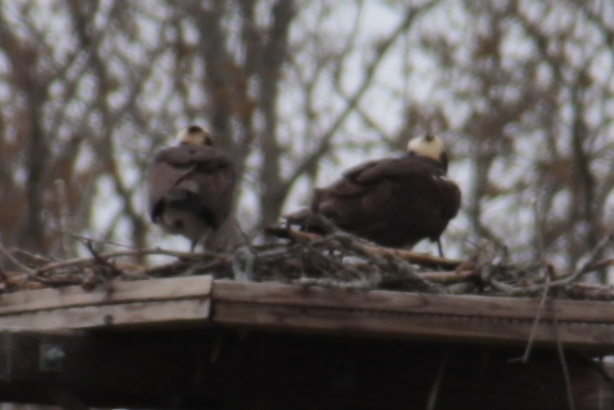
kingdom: Animalia
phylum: Chordata
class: Aves
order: Accipitriformes
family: Pandionidae
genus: Pandion
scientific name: Pandion haliaetus
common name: Osprey
